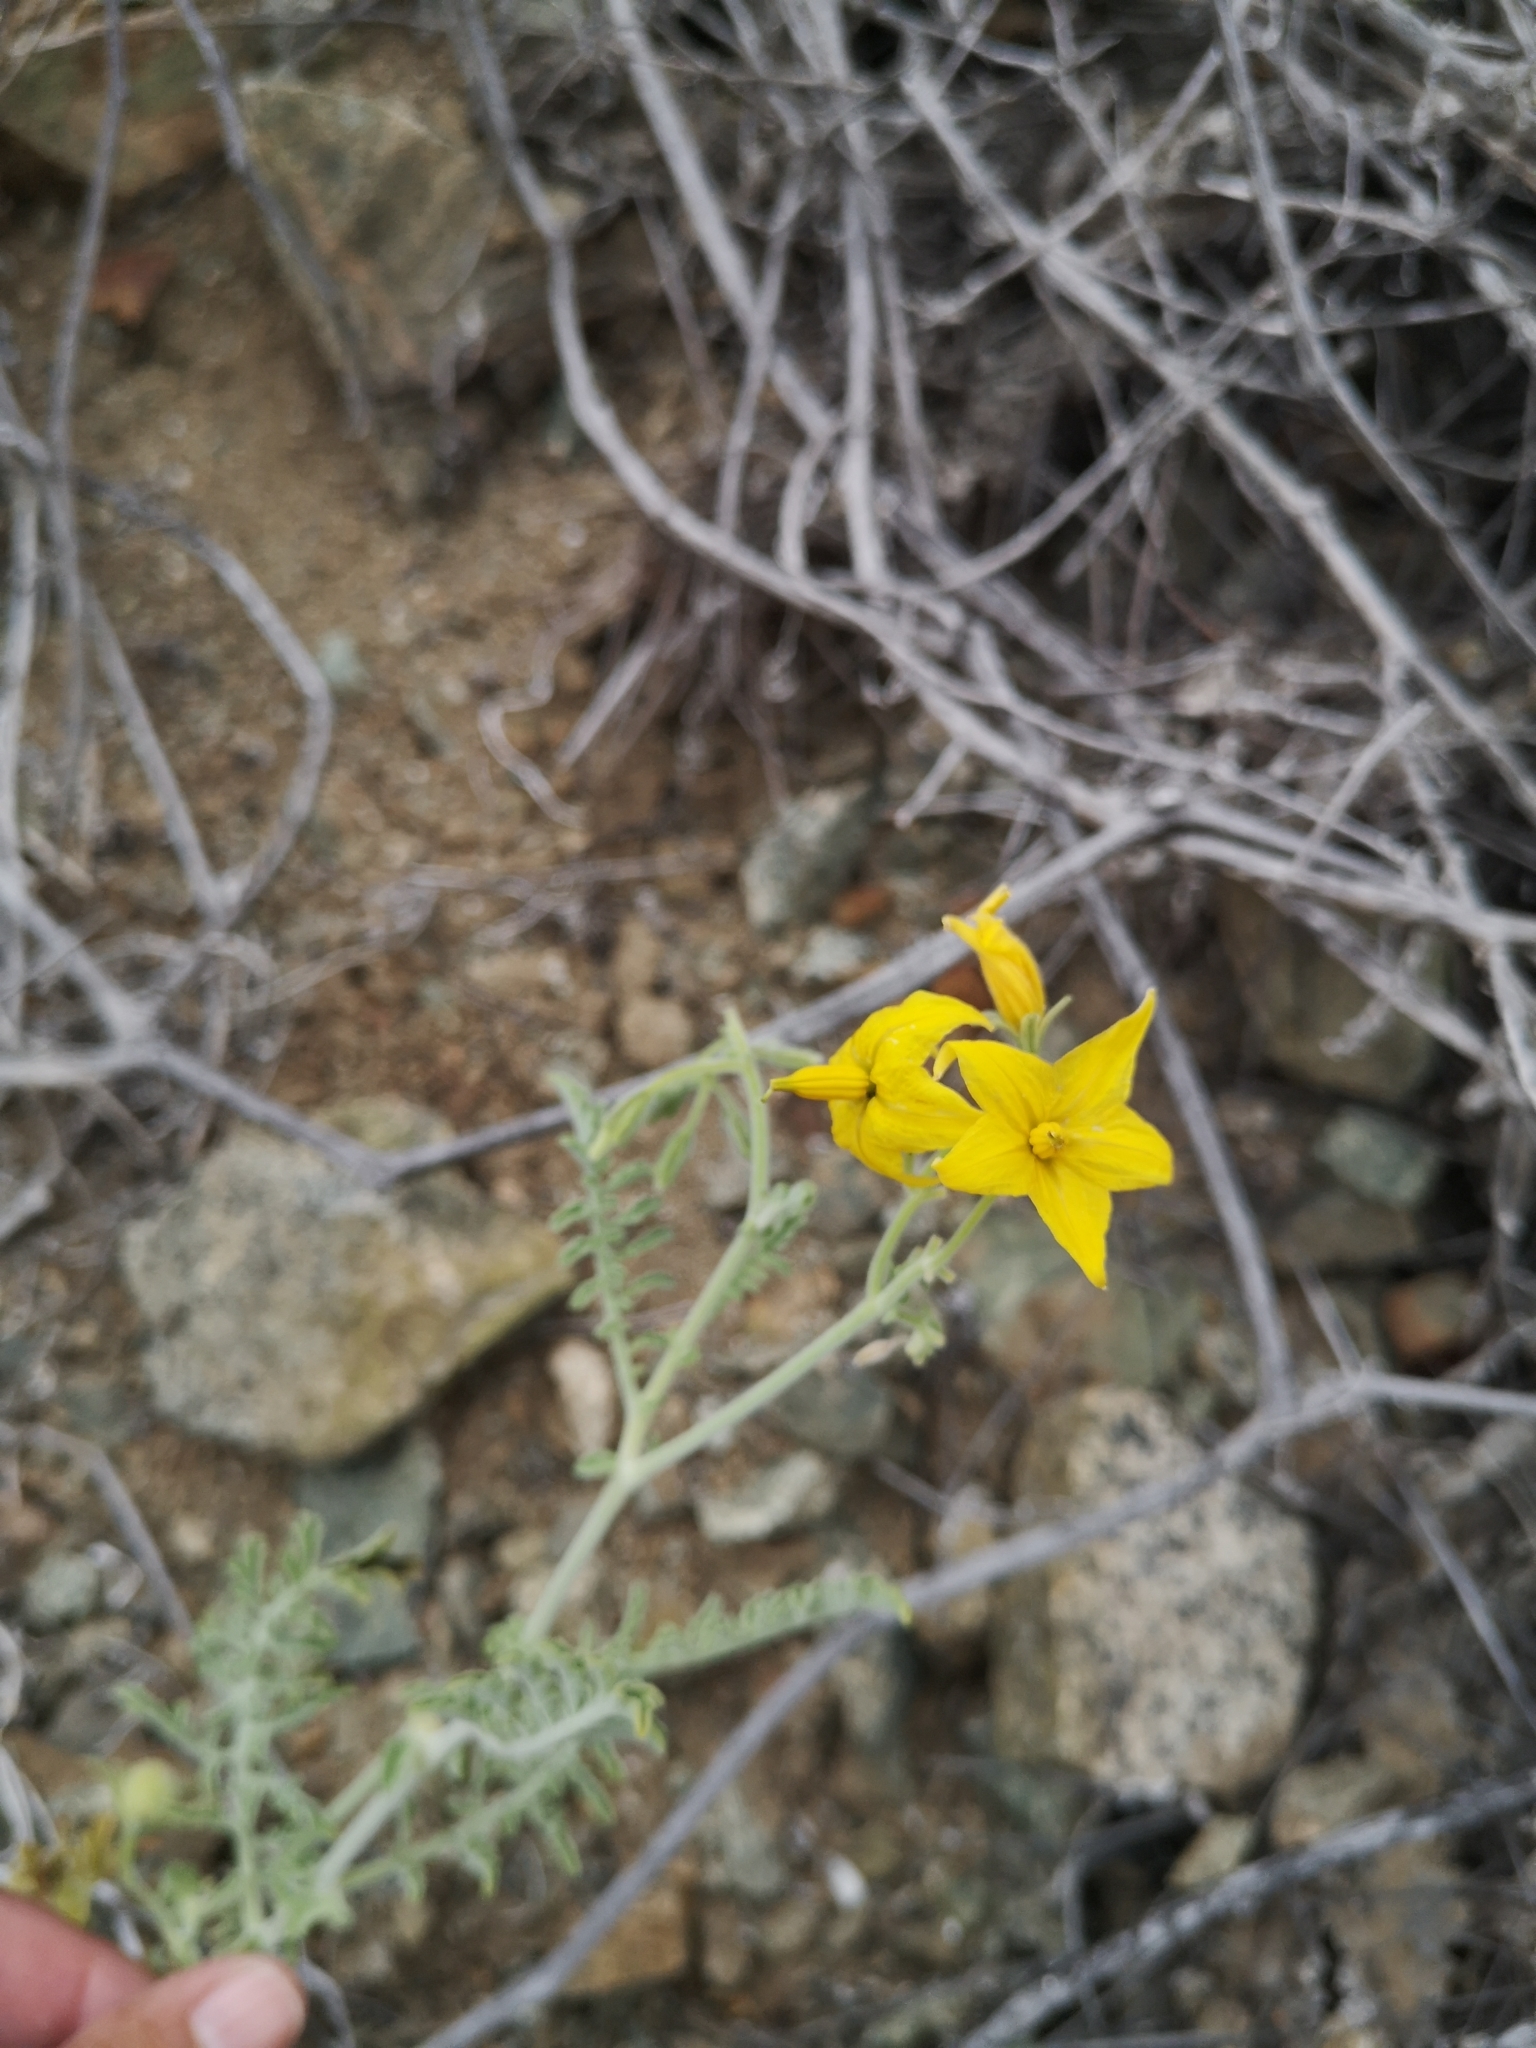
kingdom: Plantae
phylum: Tracheophyta
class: Magnoliopsida
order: Solanales
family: Solanaceae
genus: Solanum
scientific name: Solanum chilense
